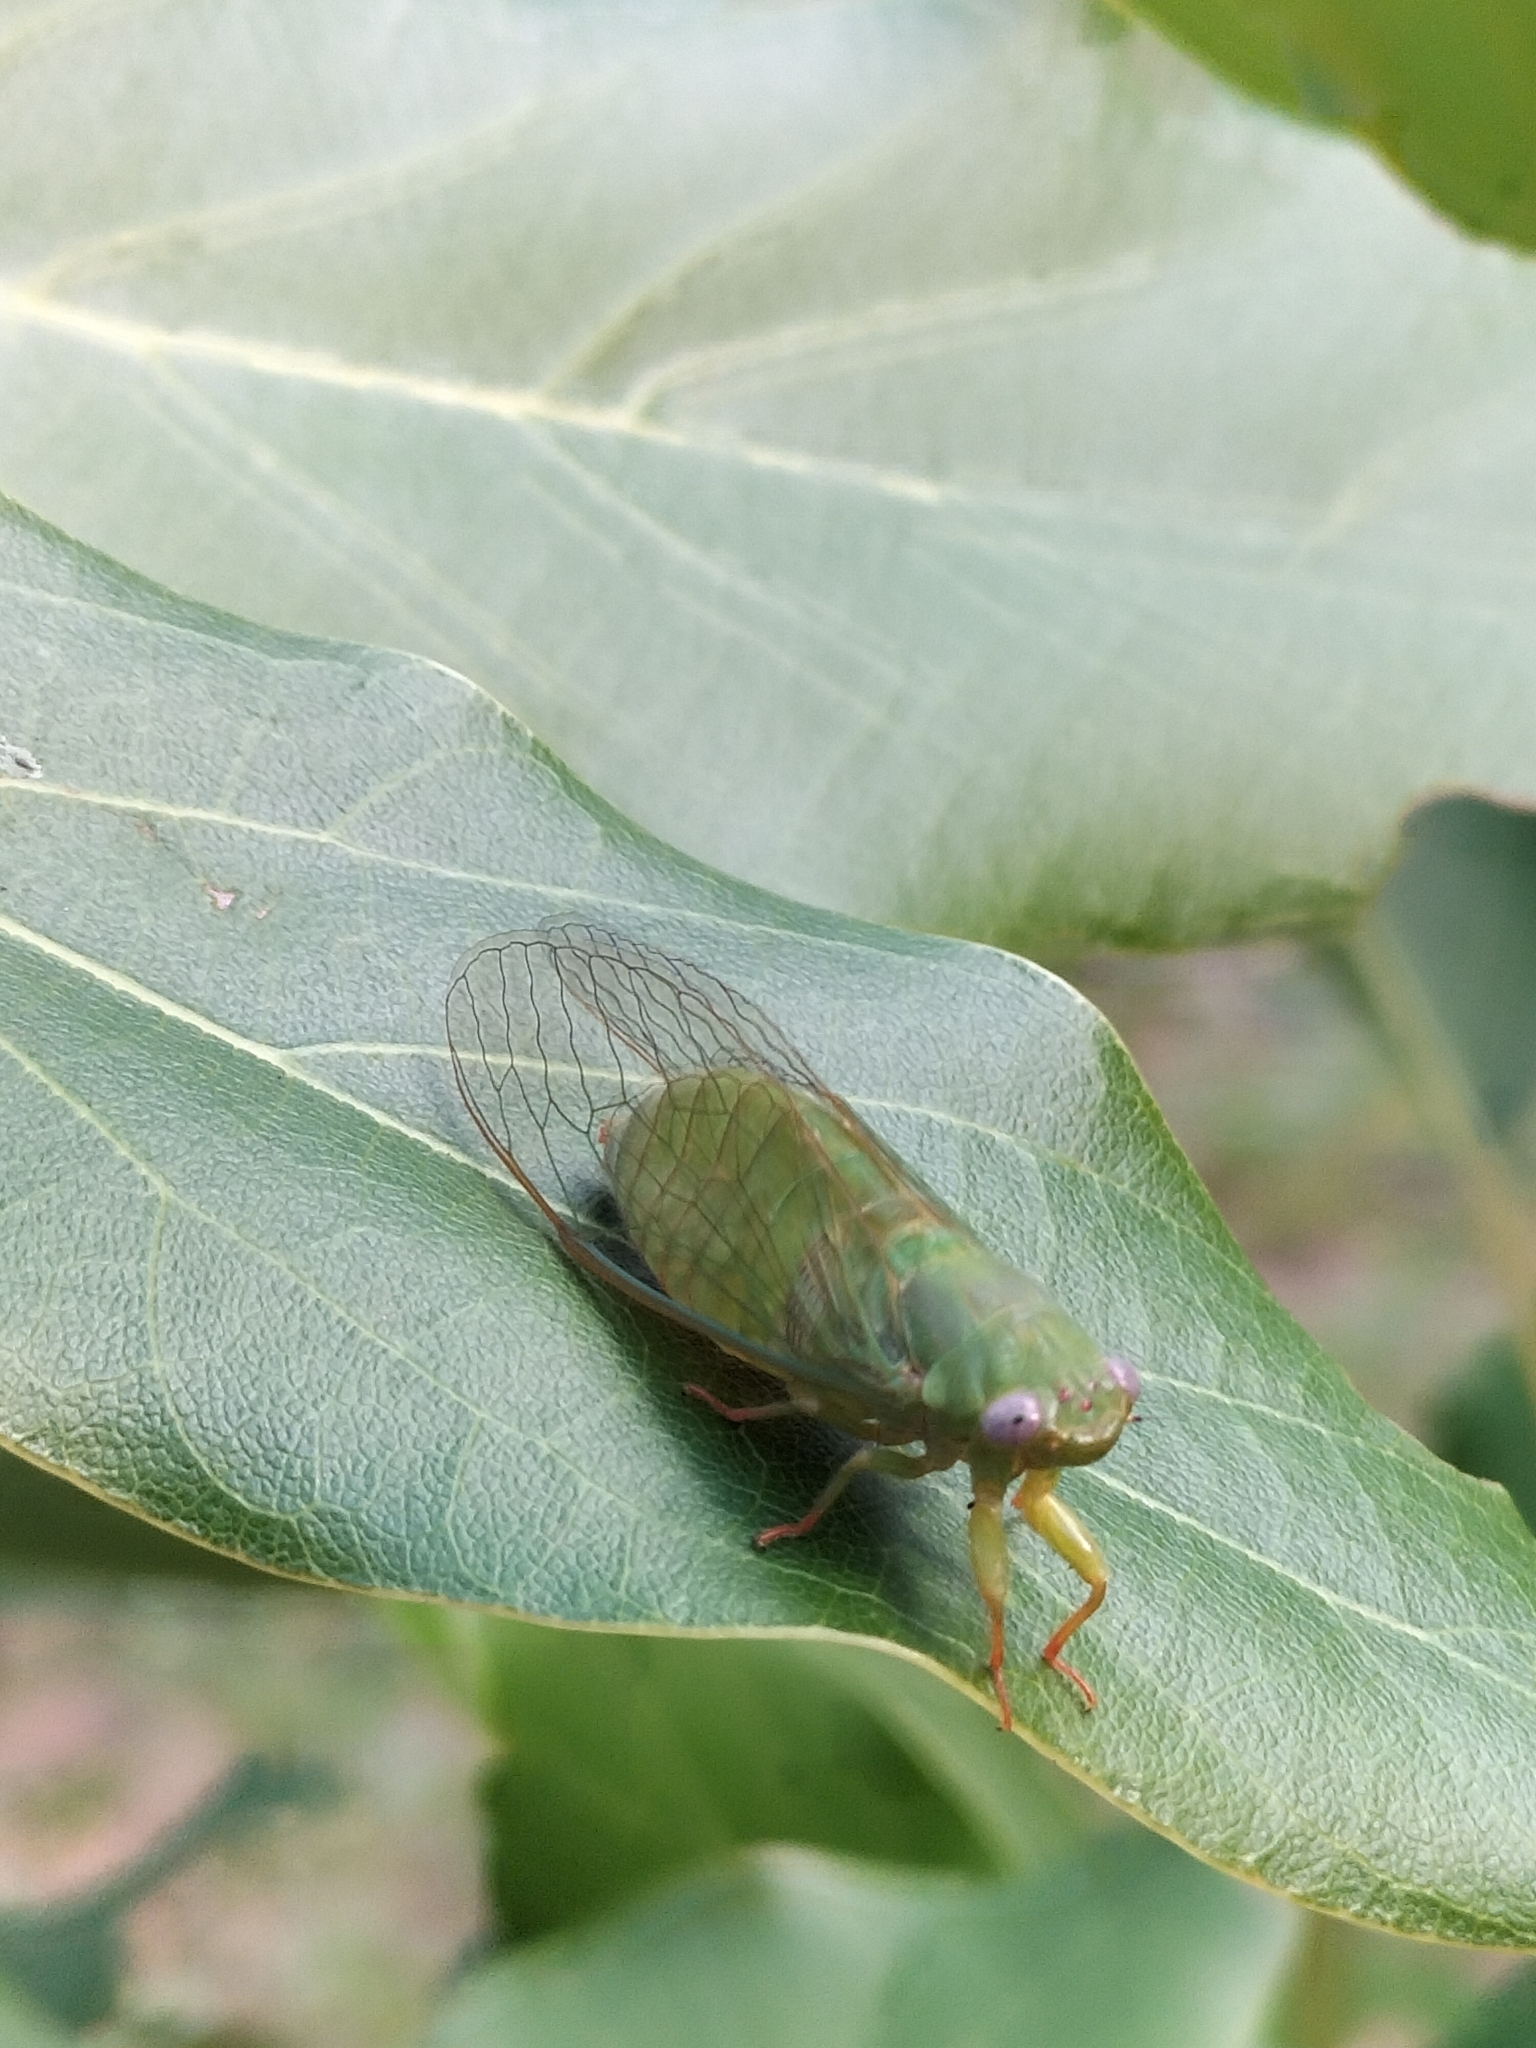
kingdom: Animalia
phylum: Arthropoda
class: Insecta
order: Hemiptera
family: Cicadidae
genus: Gymnotympana
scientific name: Gymnotympana varicolor
